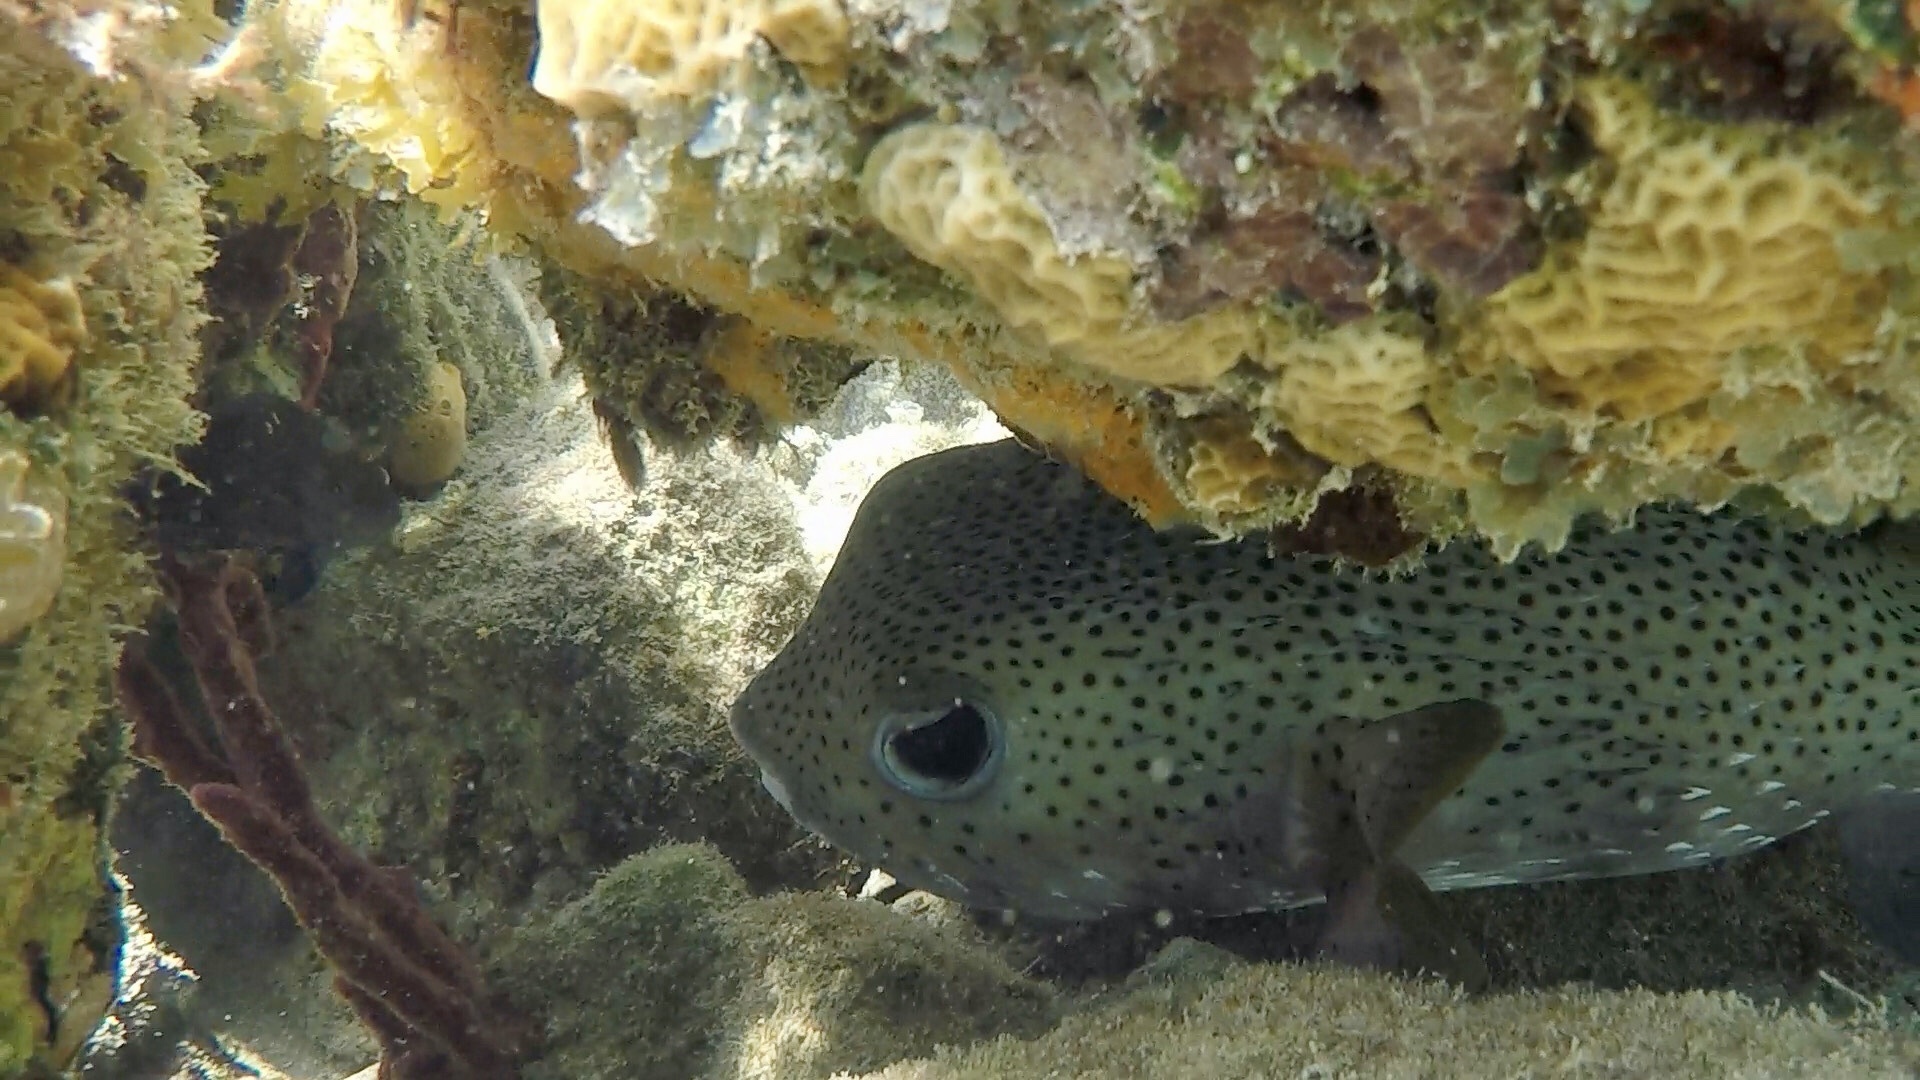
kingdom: Animalia
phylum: Chordata
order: Tetraodontiformes
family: Diodontidae
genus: Diodon
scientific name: Diodon hystrix
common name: Giant porcupinefish
